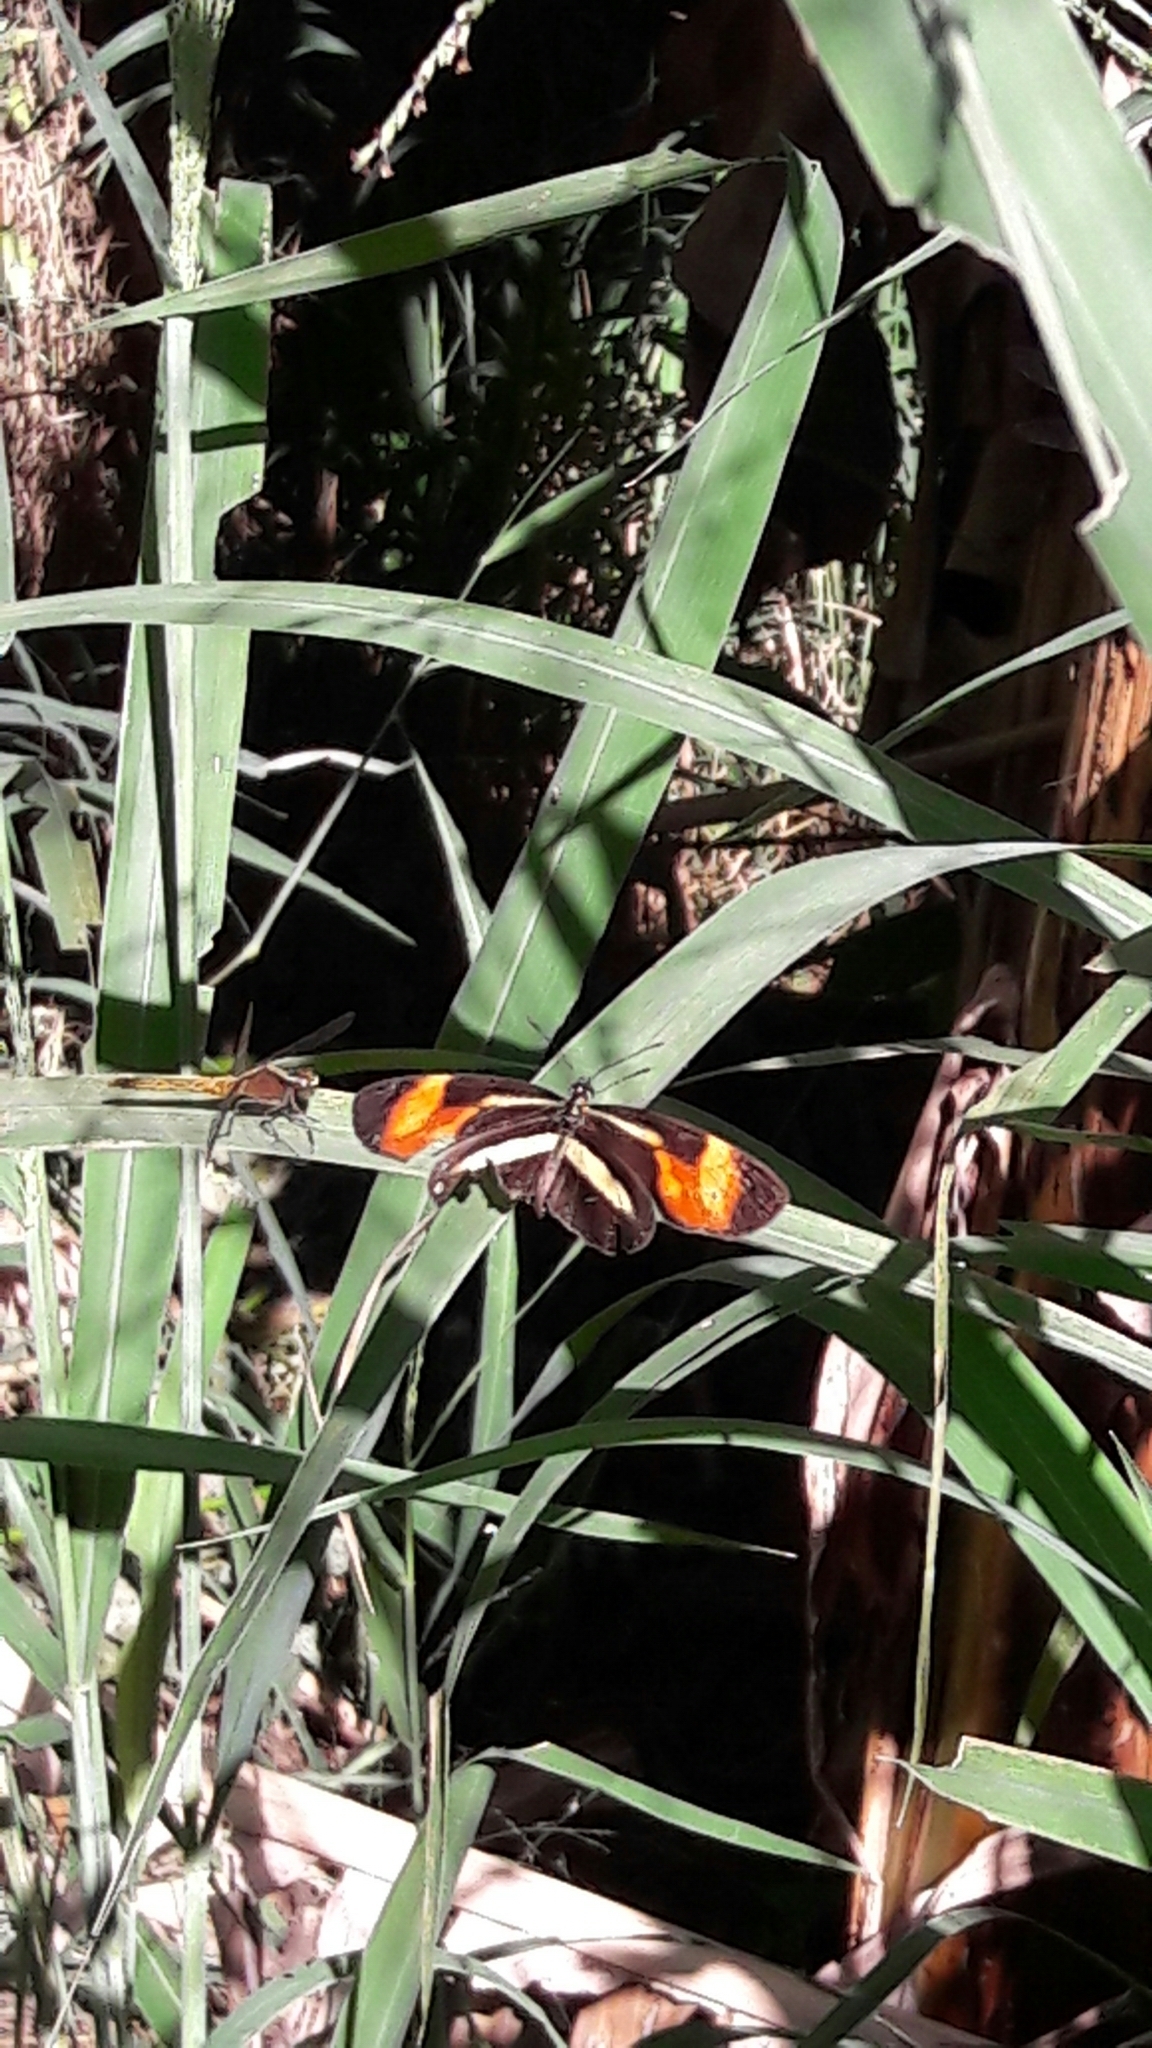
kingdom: Animalia
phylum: Arthropoda
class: Insecta
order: Lepidoptera
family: Nymphalidae
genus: Eresia
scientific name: Eresia lansdorfi
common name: Lansdorf's crescent
